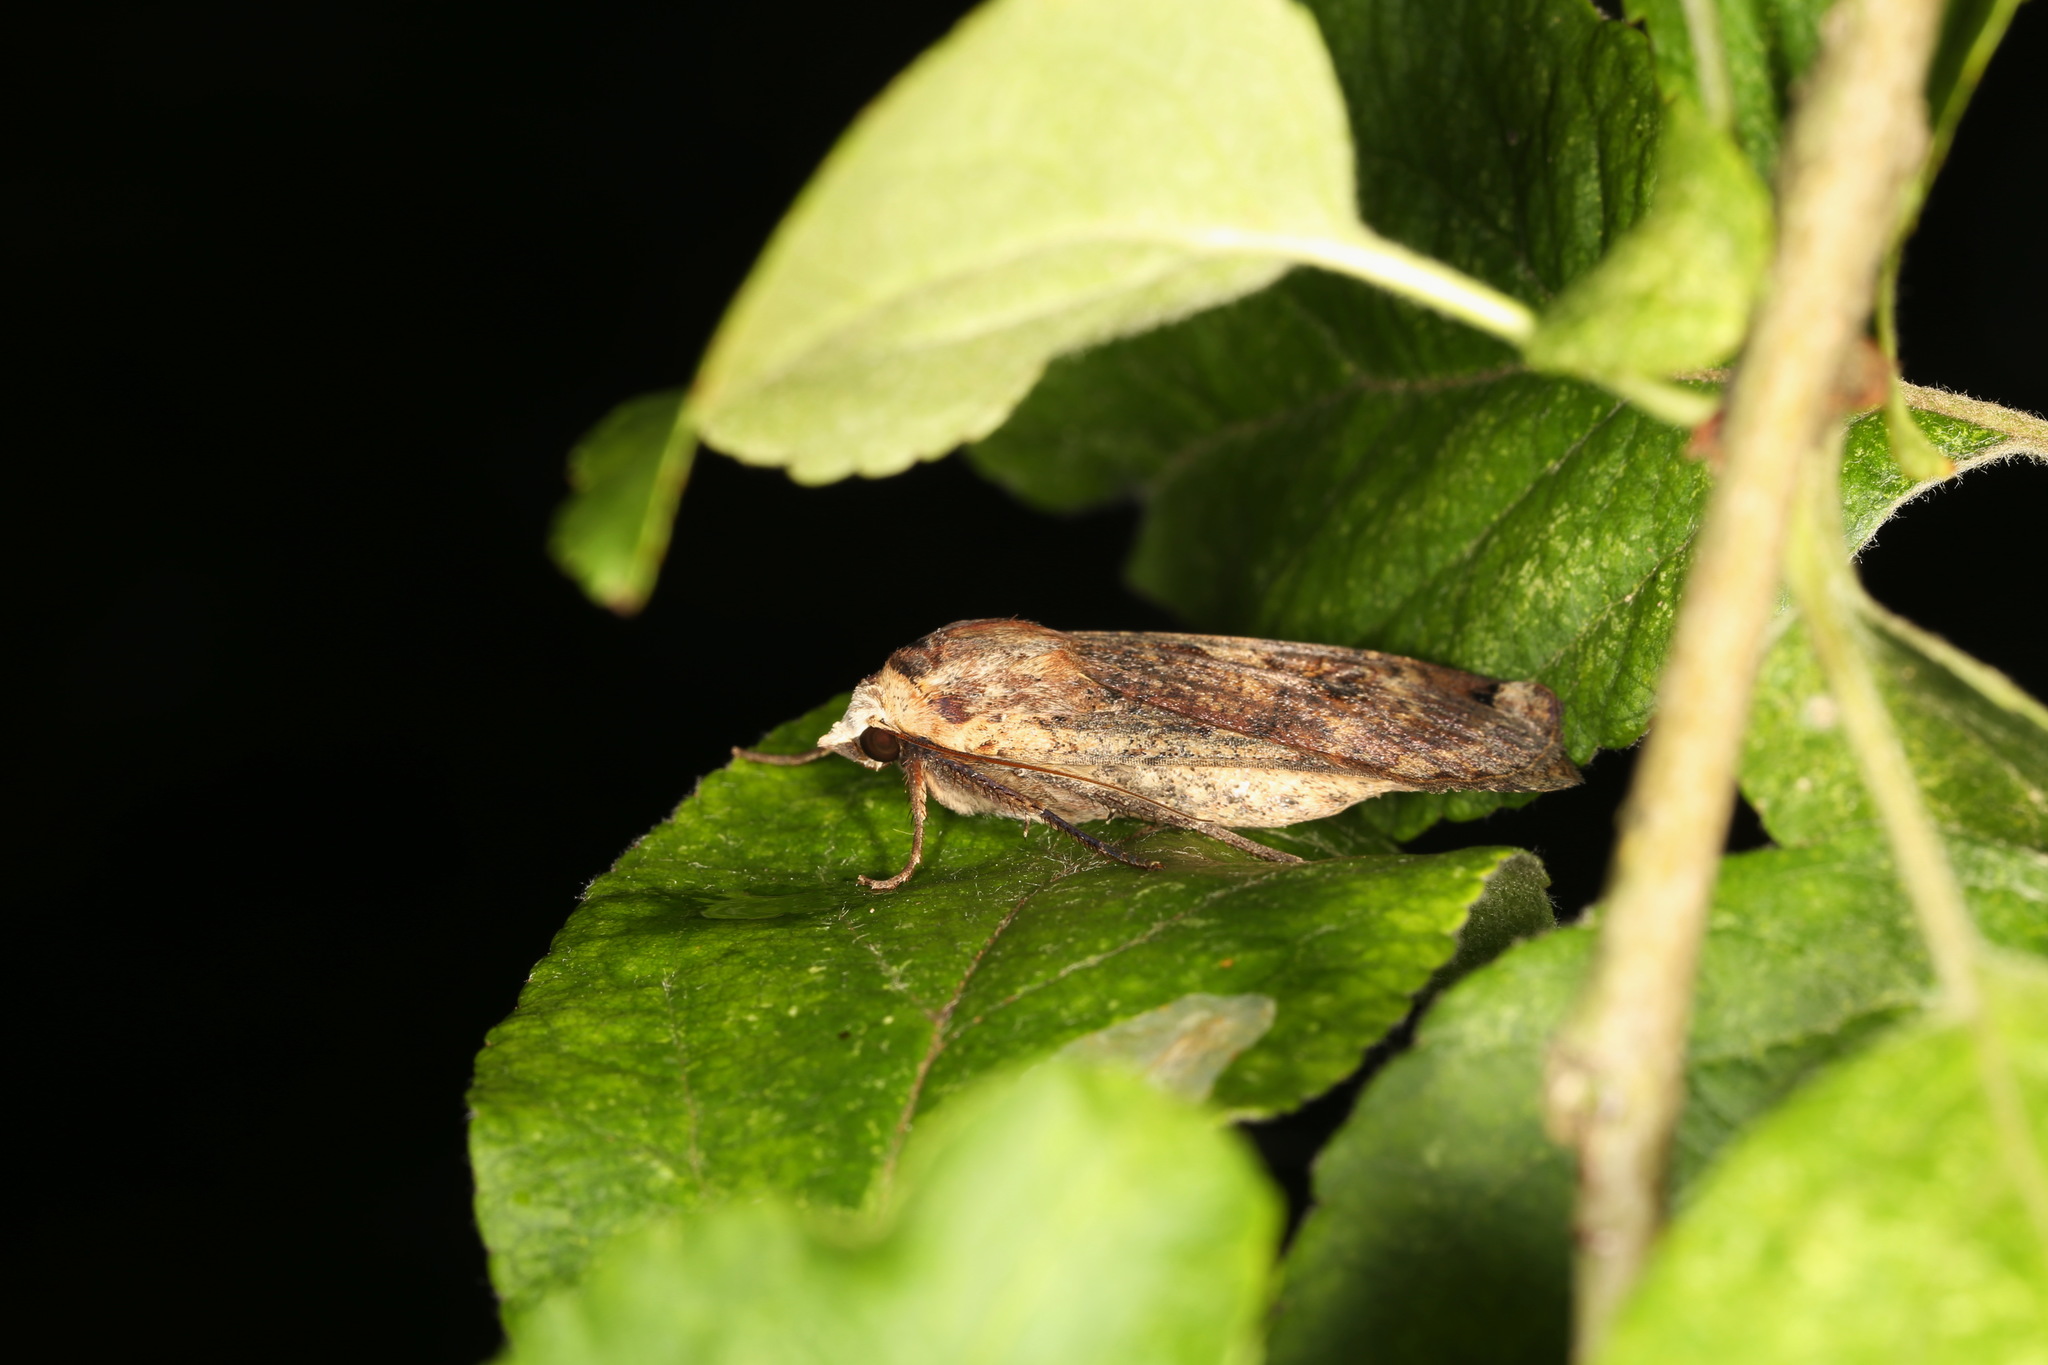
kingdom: Animalia
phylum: Arthropoda
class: Insecta
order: Lepidoptera
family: Noctuidae
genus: Noctua
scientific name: Noctua pronuba
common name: Large yellow underwing
